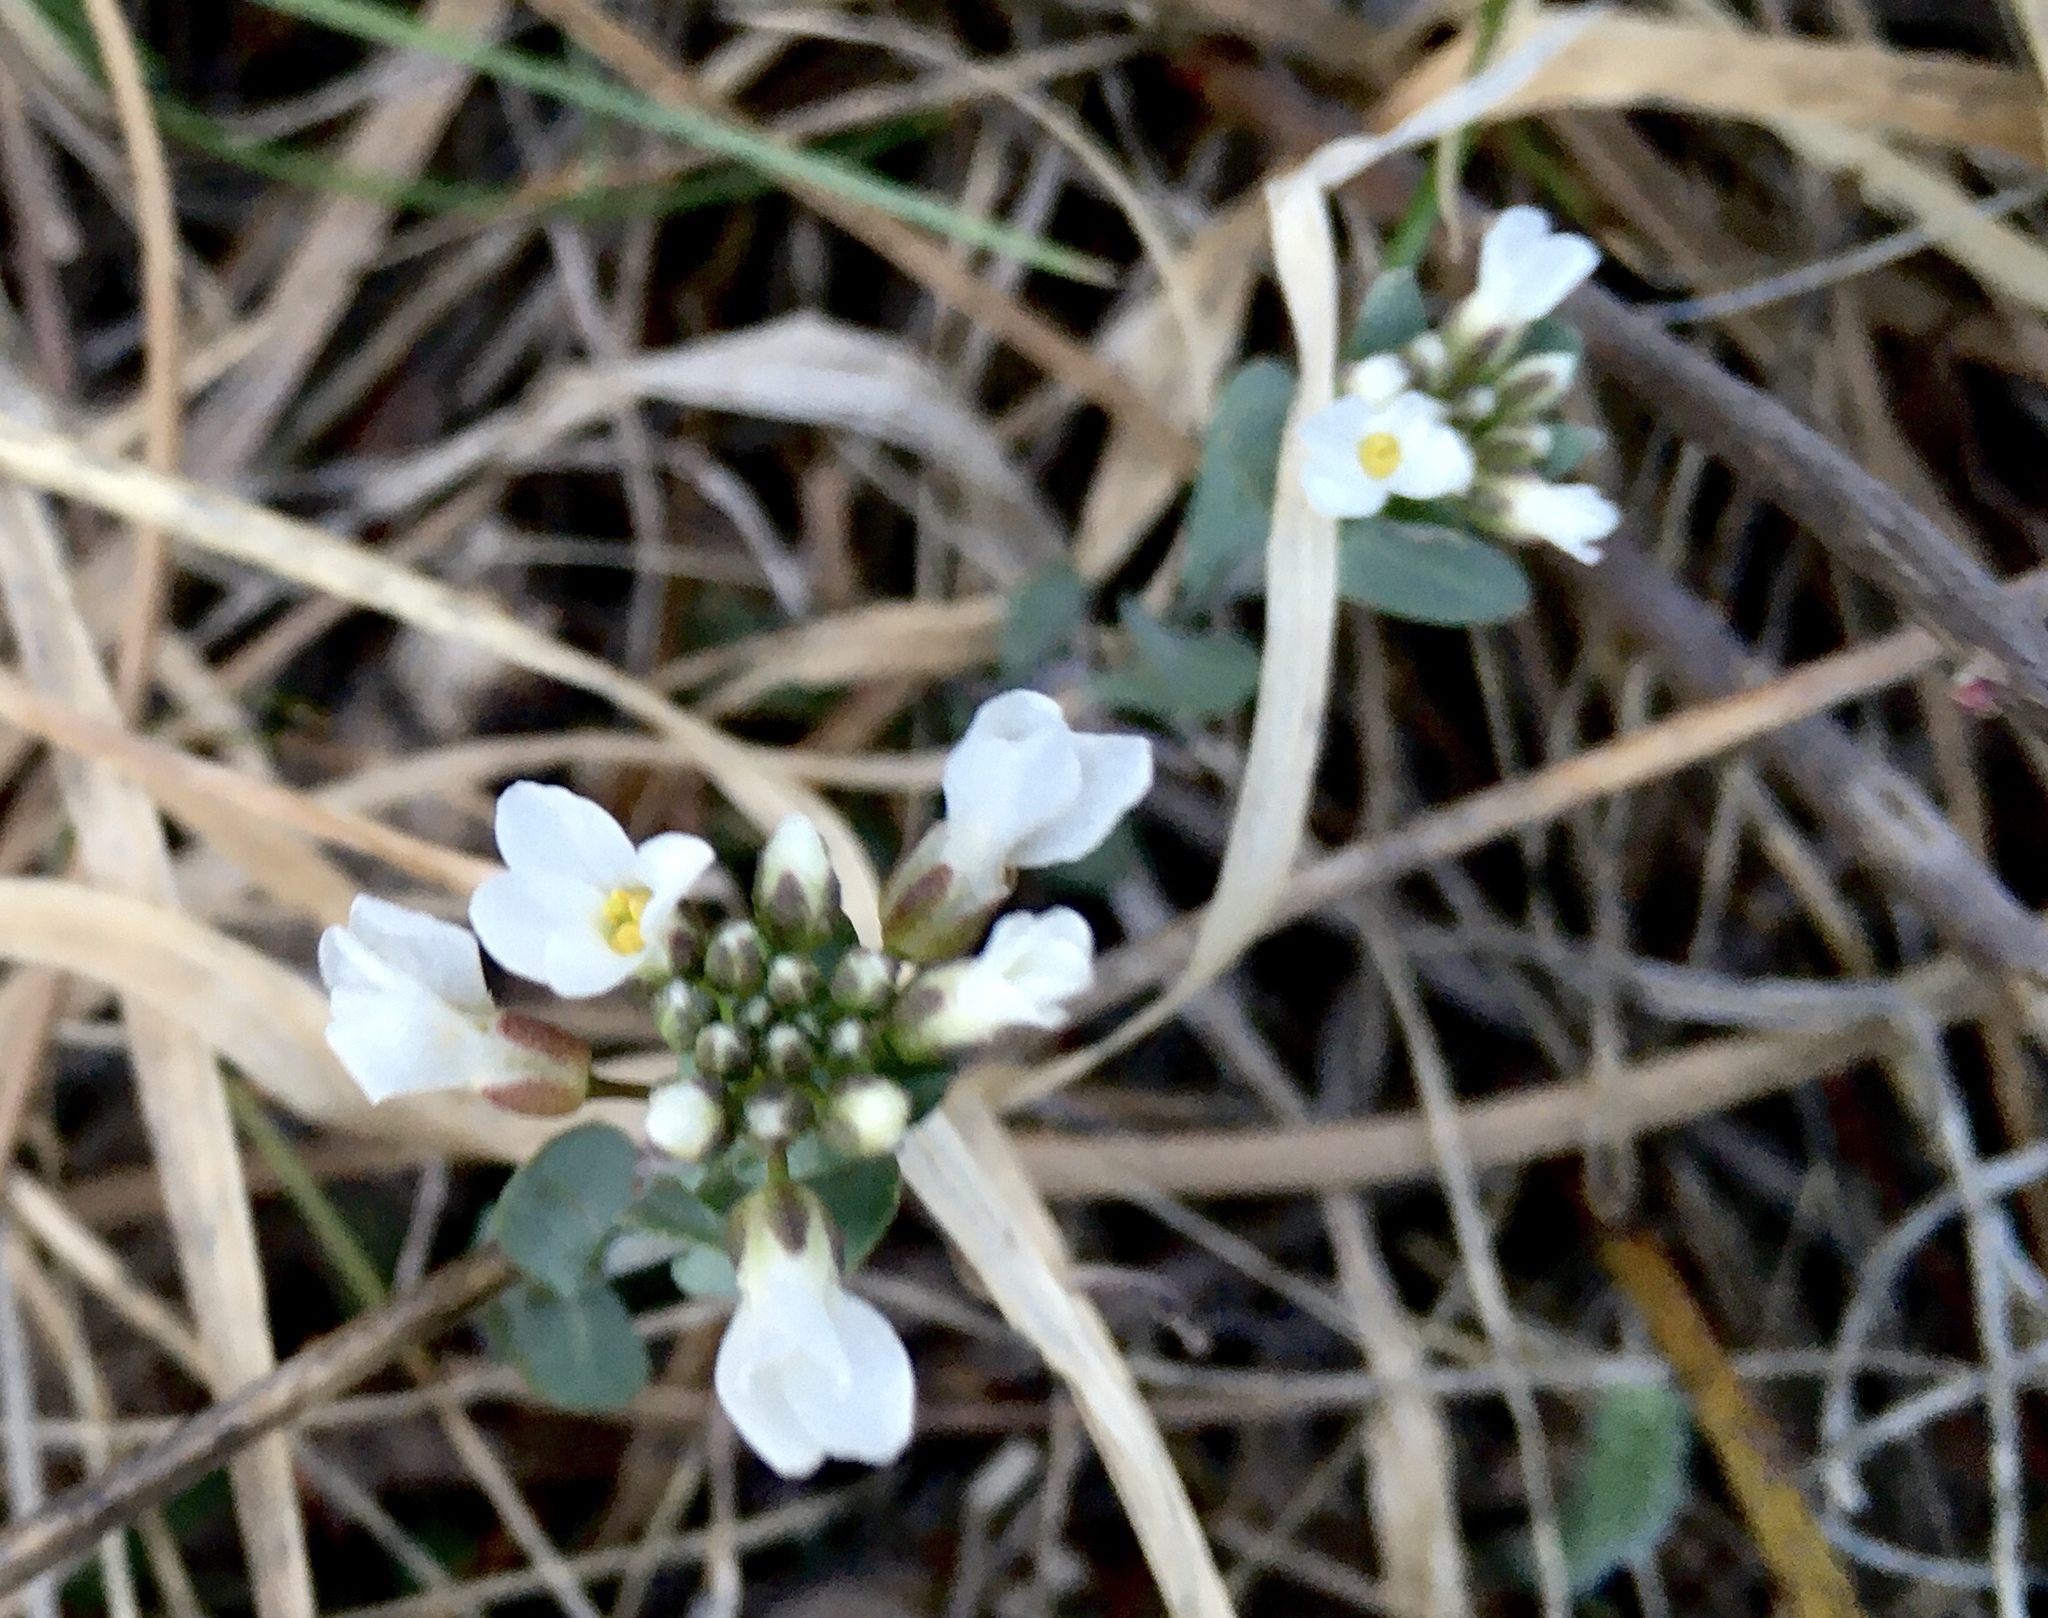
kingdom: Plantae
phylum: Tracheophyta
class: Magnoliopsida
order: Brassicales
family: Brassicaceae
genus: Noccaea
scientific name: Noccaea fendleri
